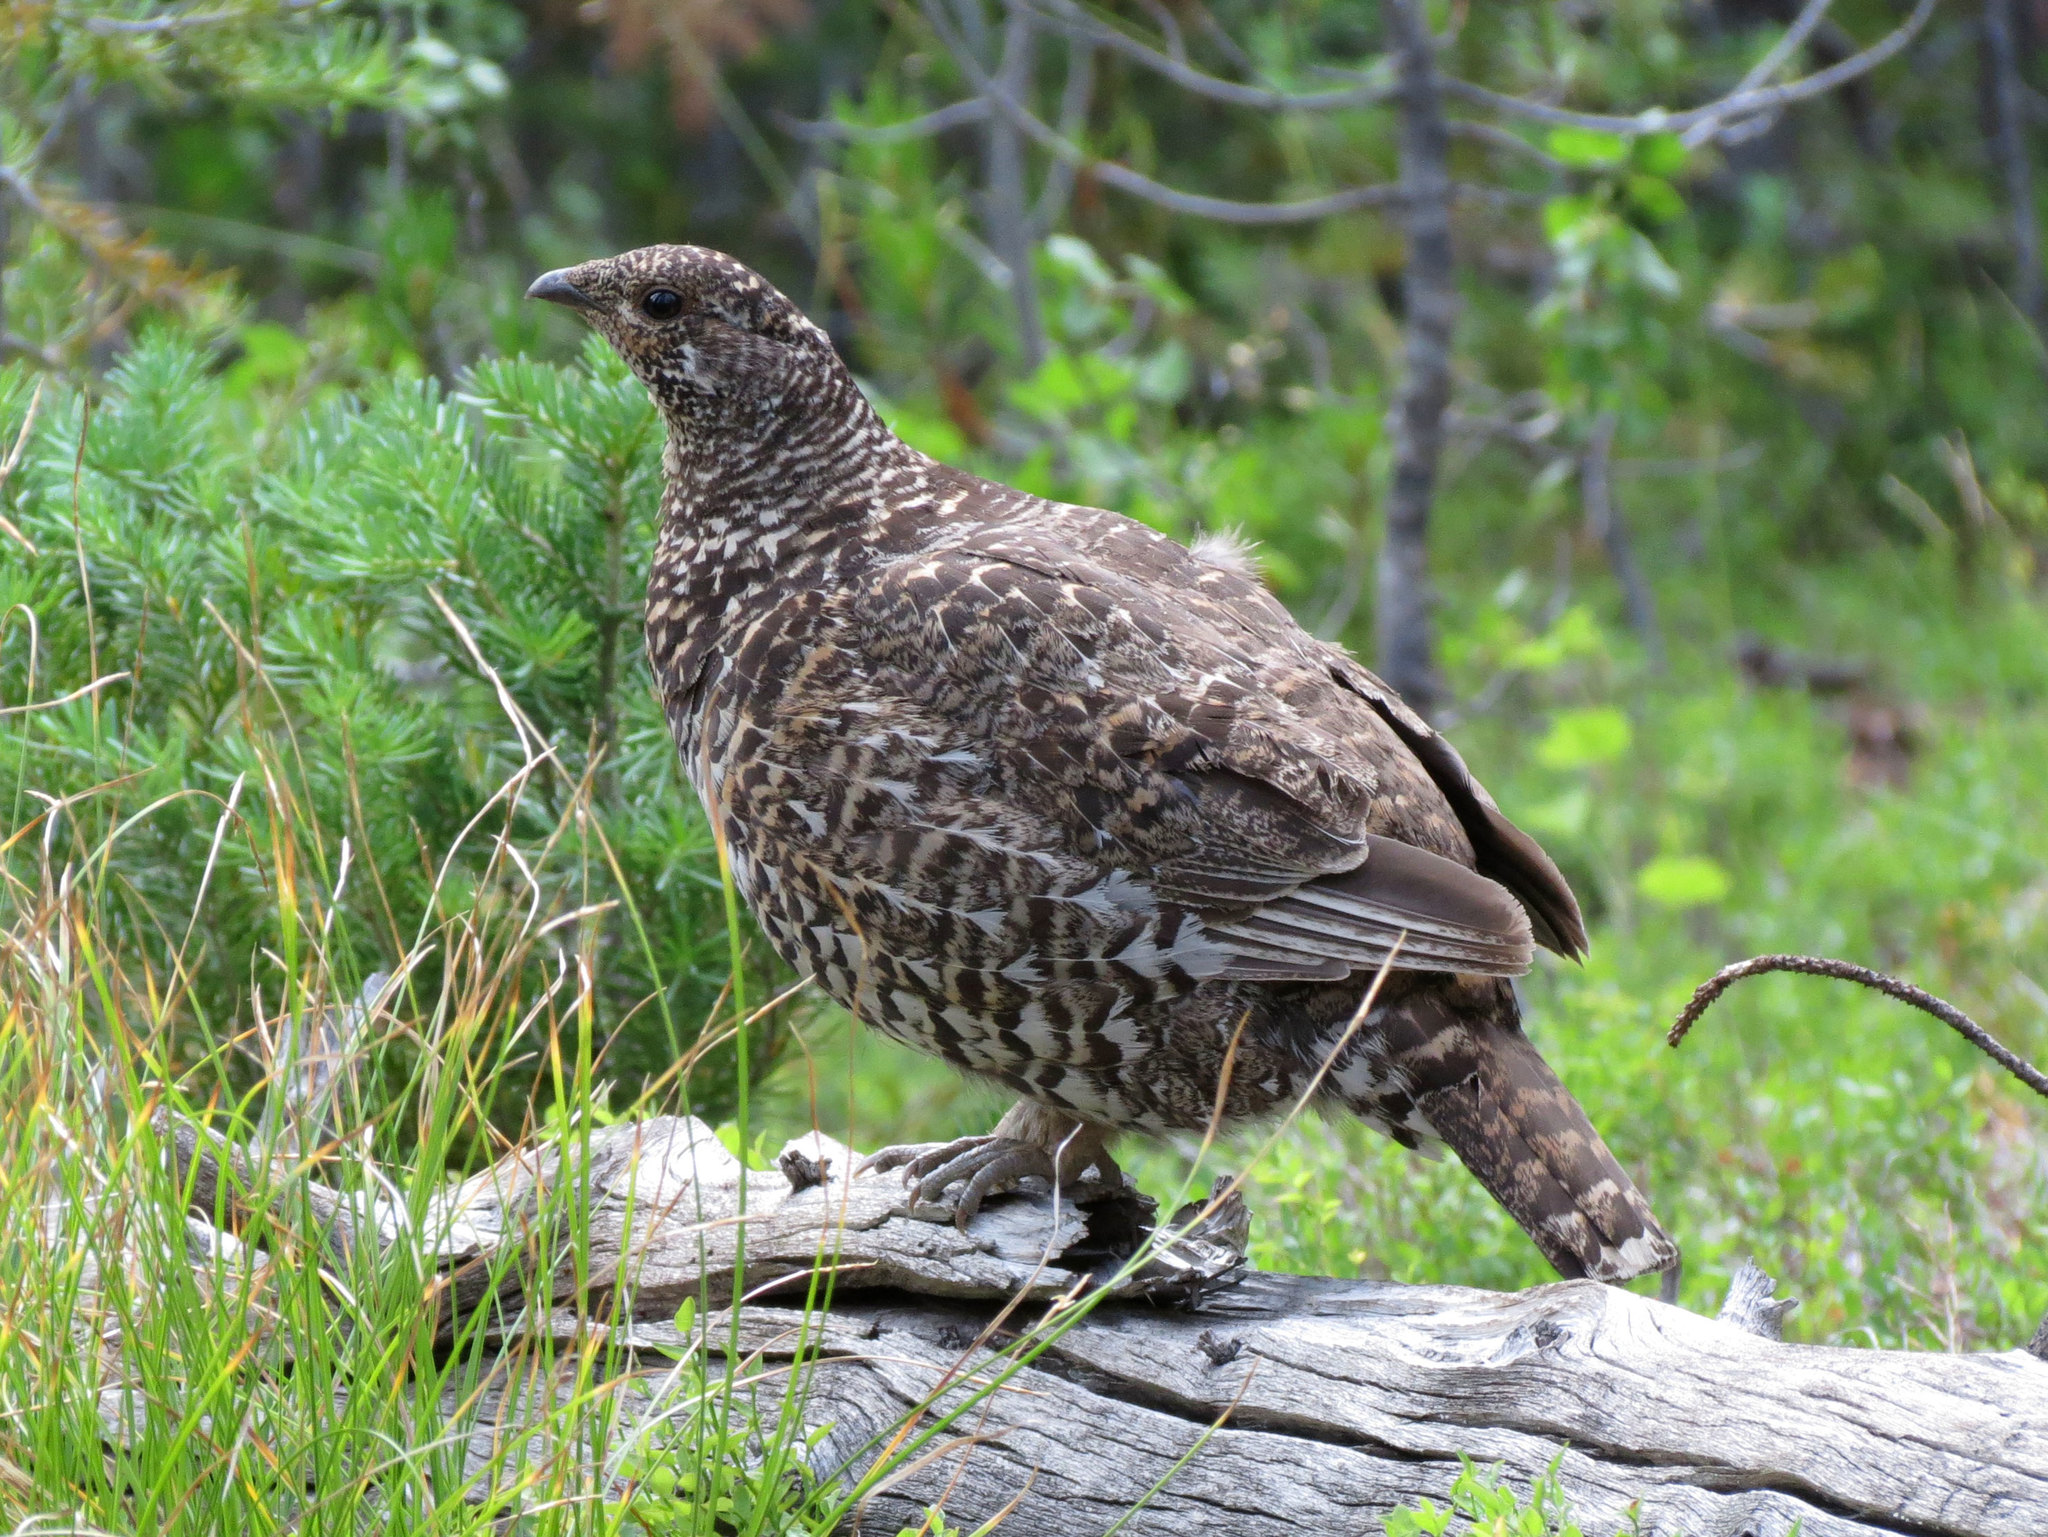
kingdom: Animalia
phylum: Chordata
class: Aves
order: Galliformes
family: Phasianidae
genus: Canachites
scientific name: Canachites canadensis
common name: Spruce grouse
